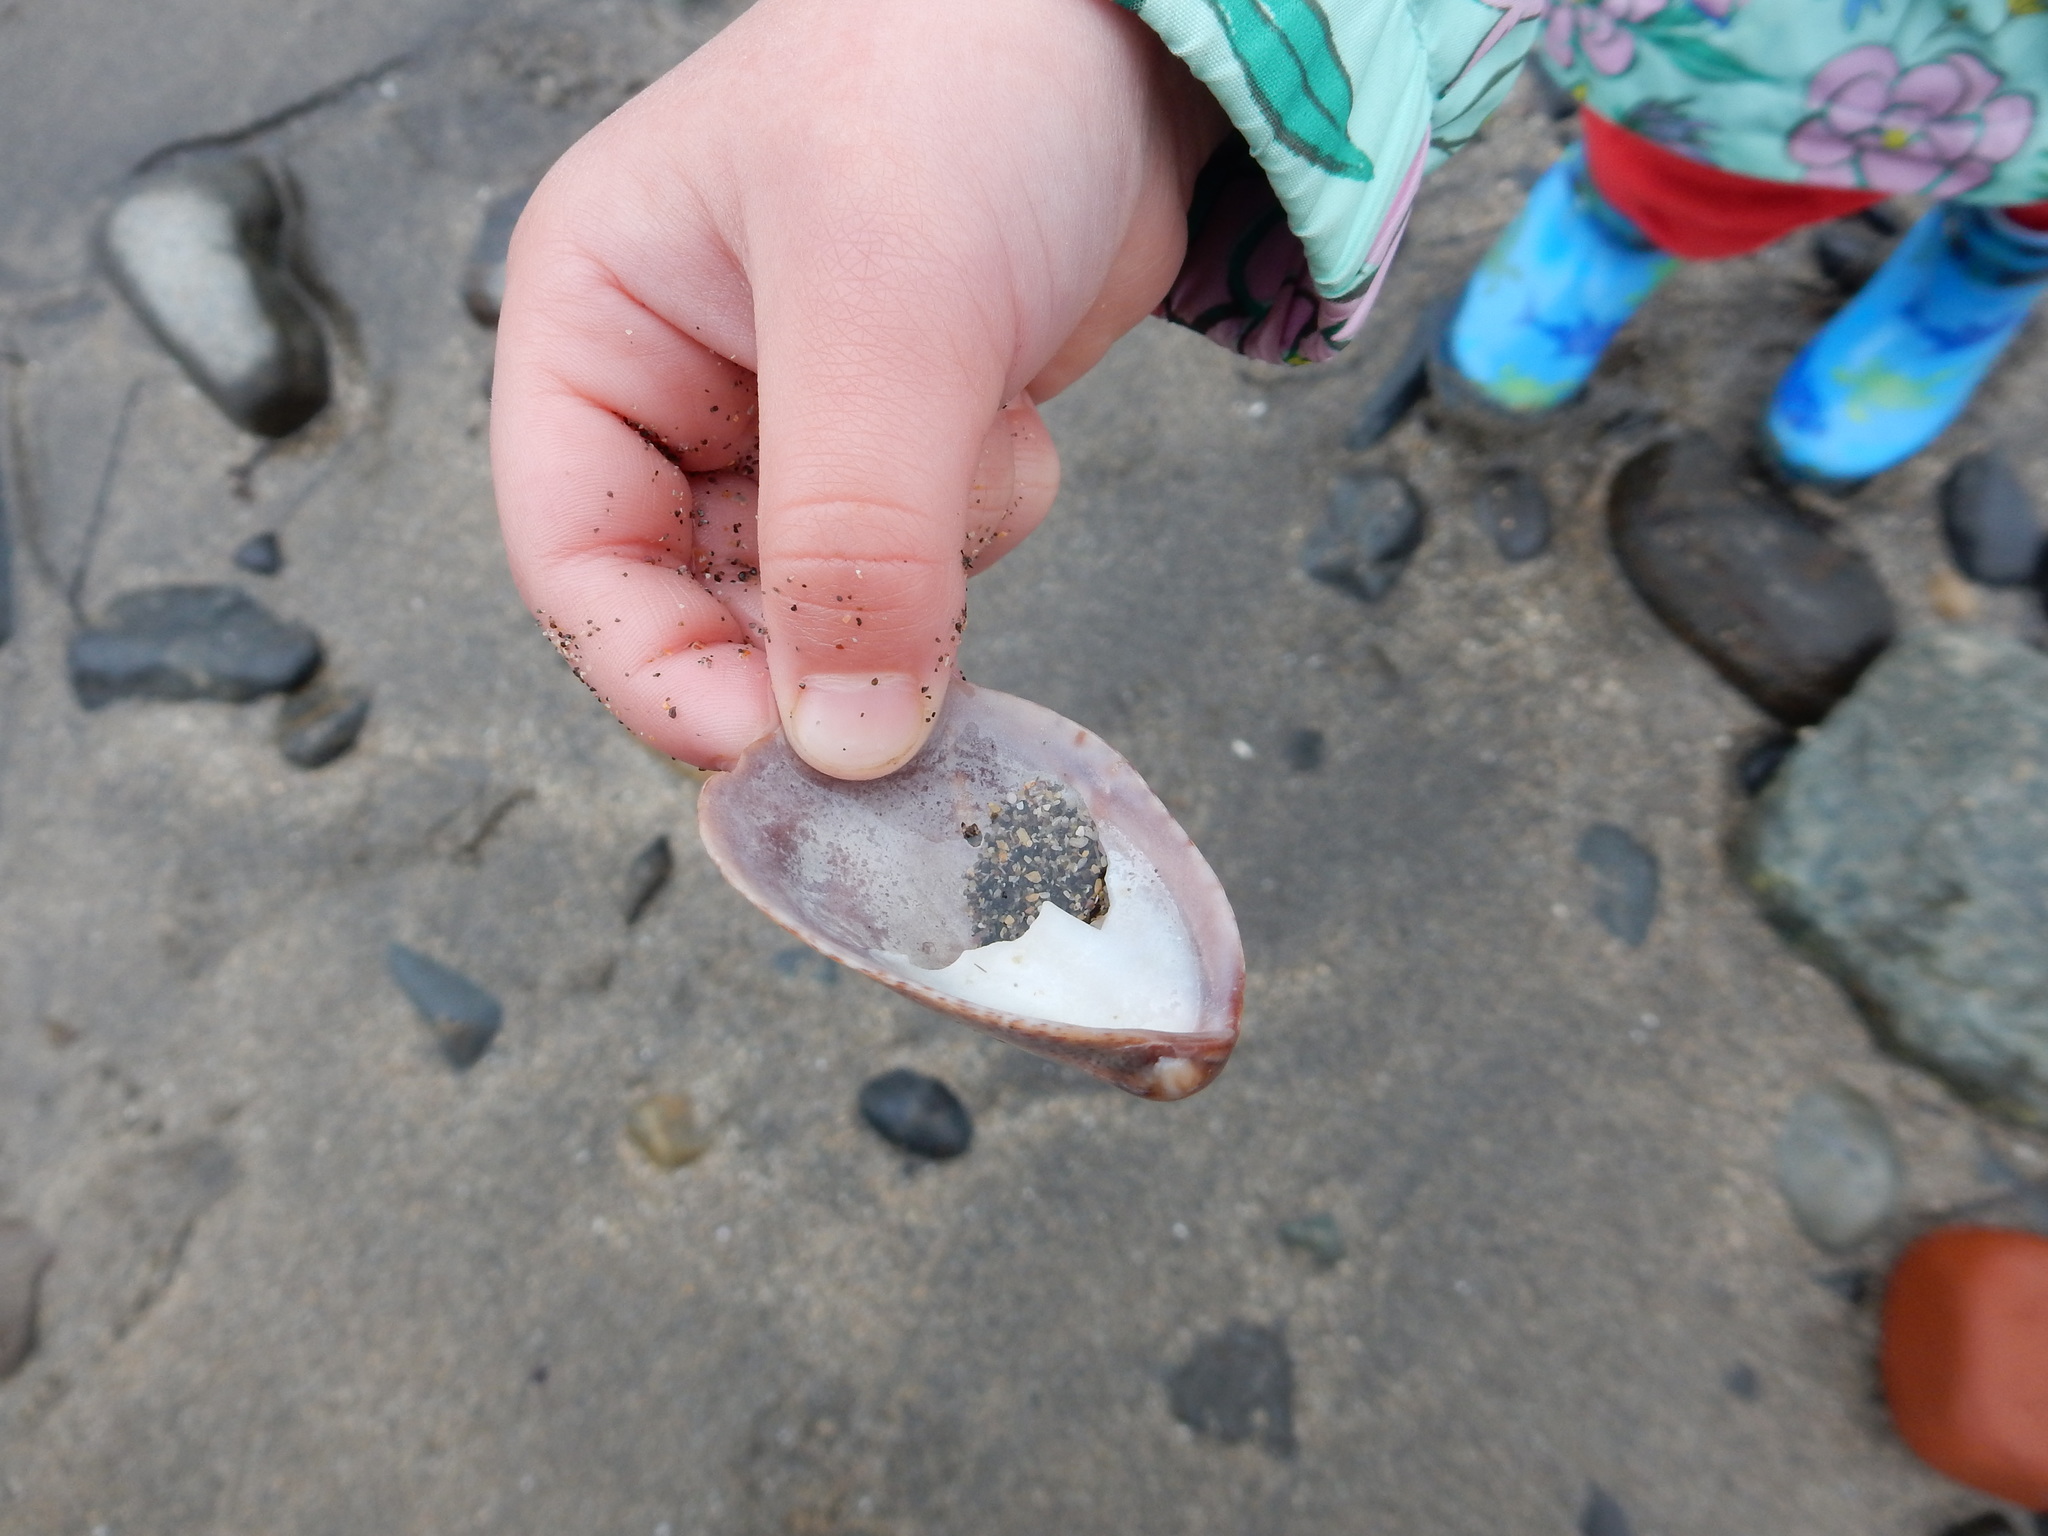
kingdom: Animalia
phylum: Mollusca
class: Gastropoda
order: Littorinimorpha
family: Calyptraeidae
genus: Crepidula
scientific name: Crepidula fornicata
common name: Slipper limpet
